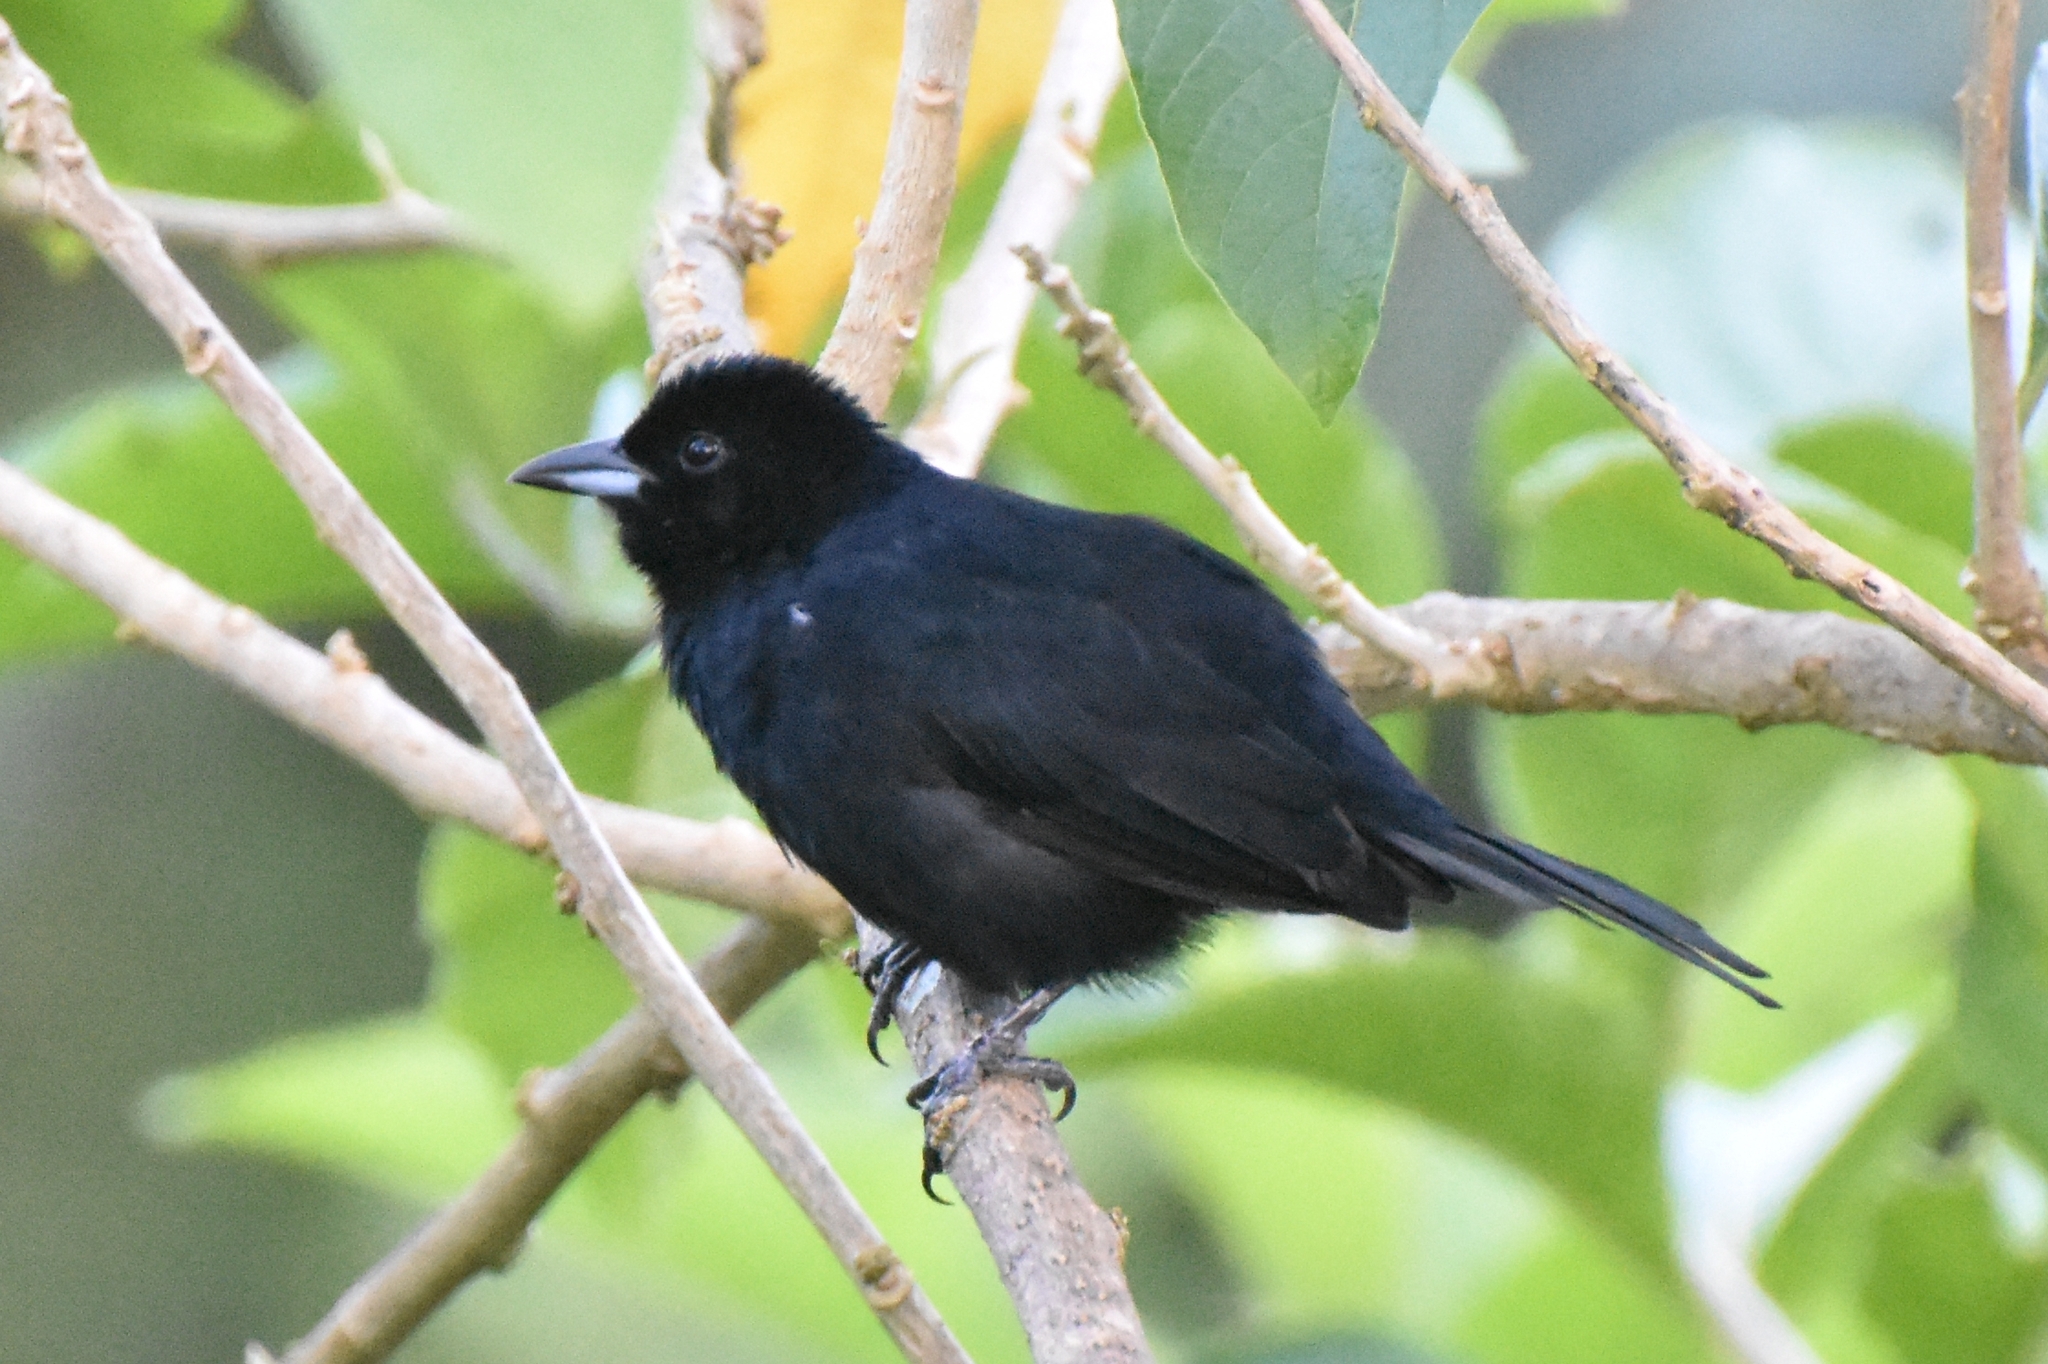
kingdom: Animalia
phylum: Chordata
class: Aves
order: Passeriformes
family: Thraupidae
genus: Tachyphonus
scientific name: Tachyphonus rufus
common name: White-lined tanager
